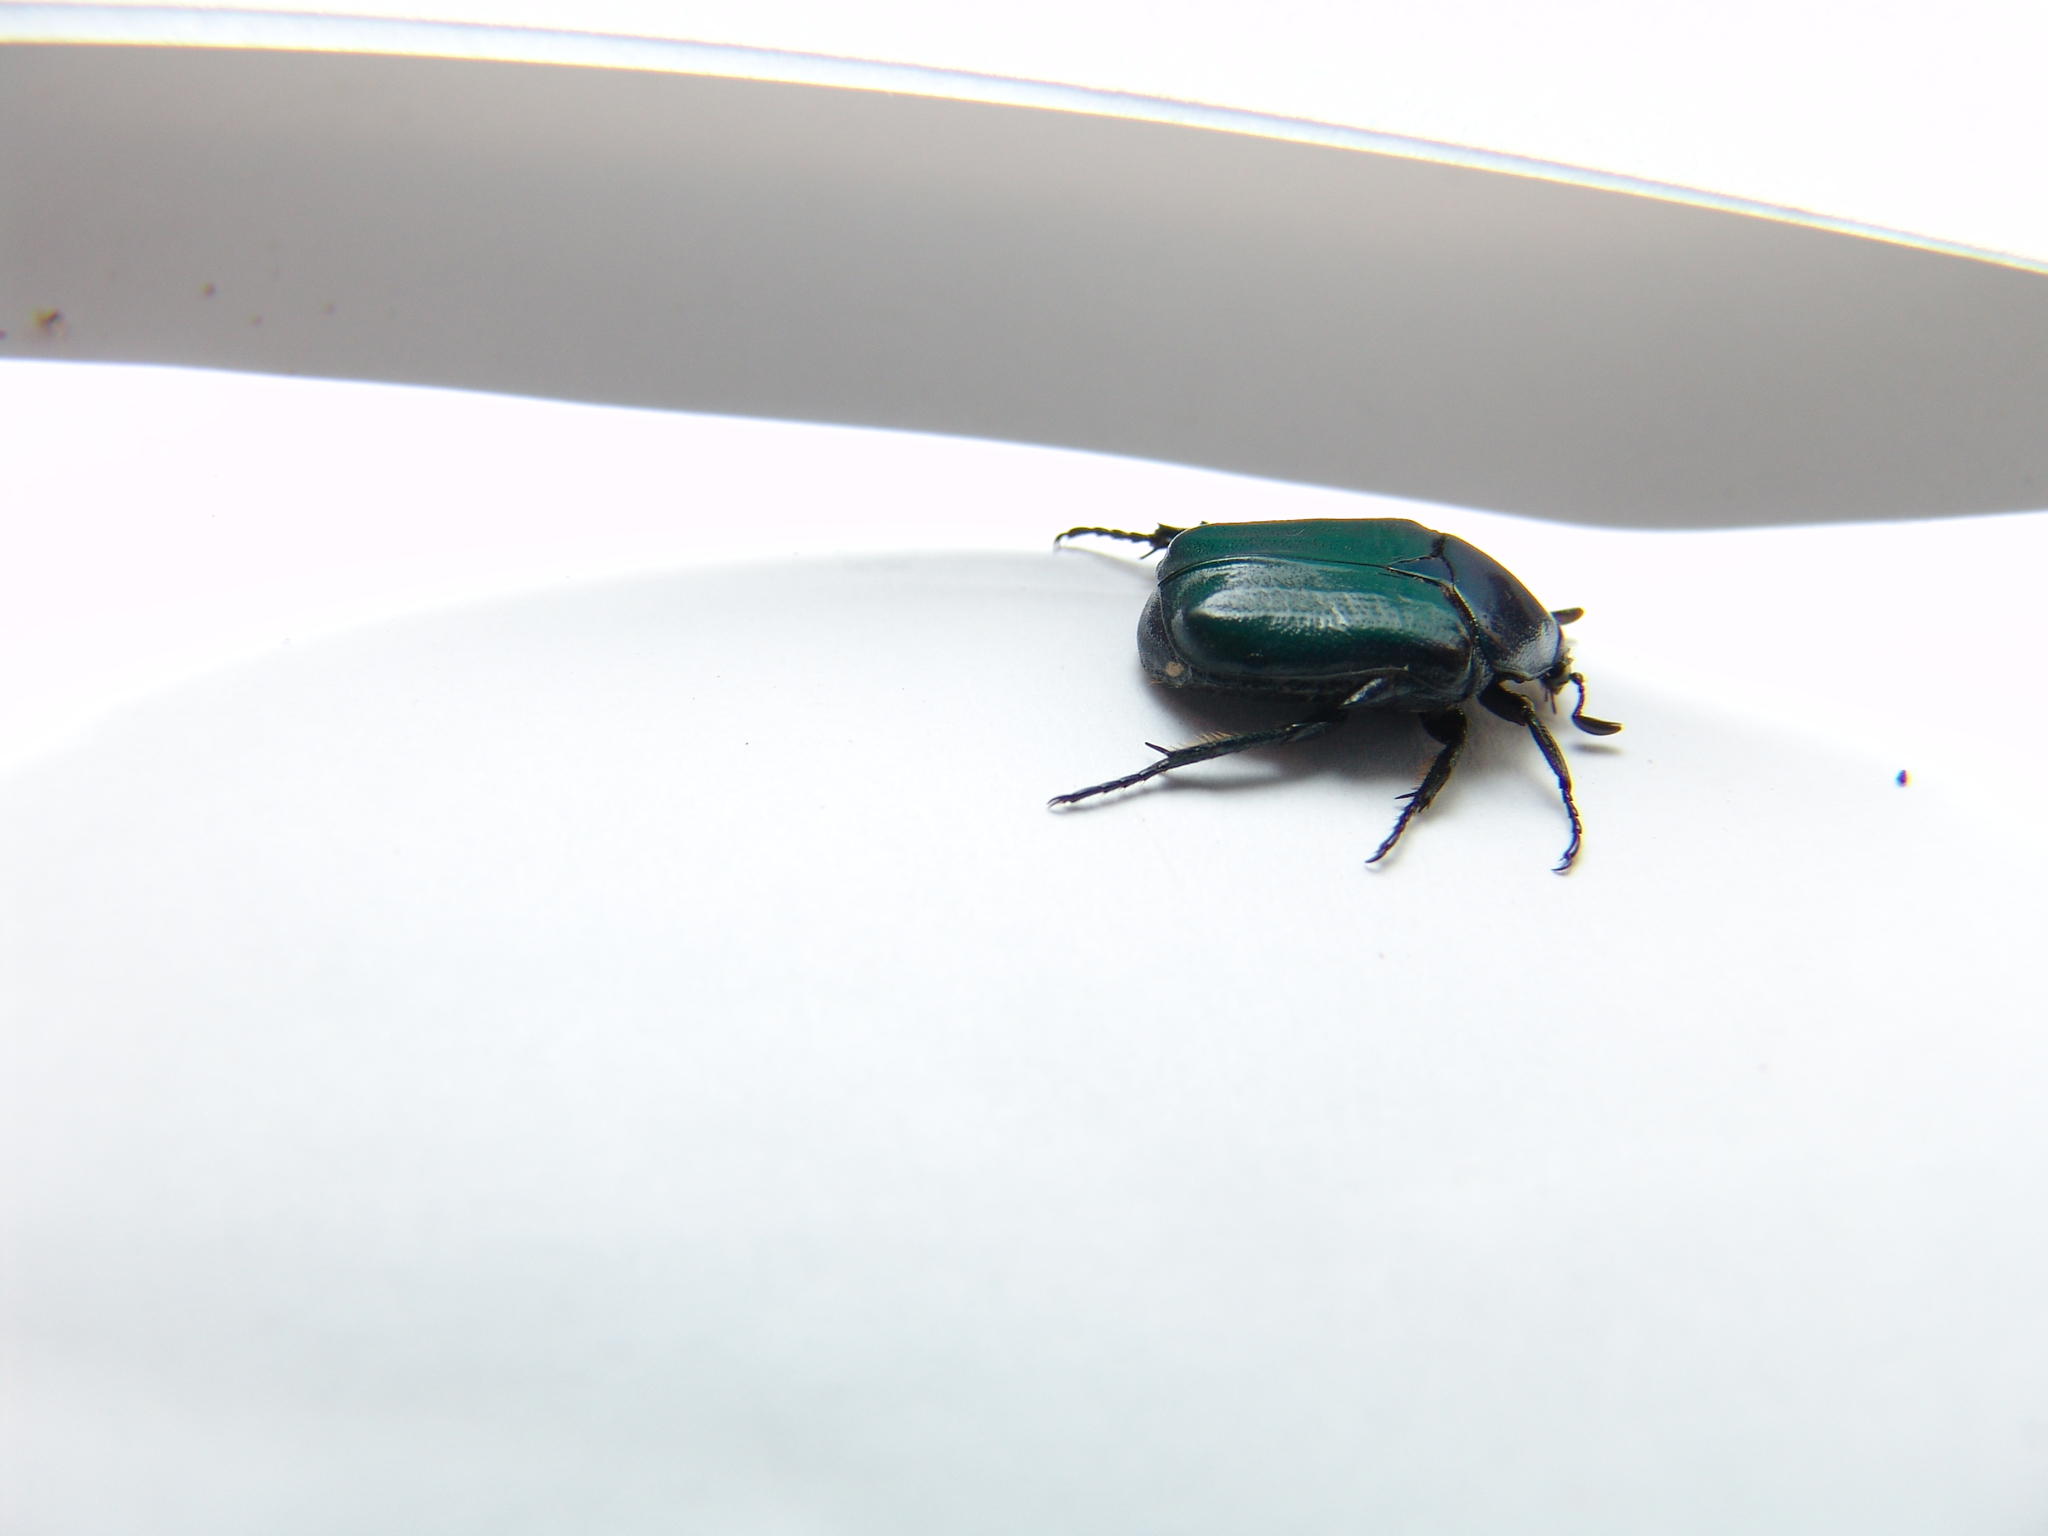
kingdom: Animalia
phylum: Arthropoda
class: Insecta
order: Coleoptera
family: Scarabaeidae
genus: Euphoria
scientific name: Euphoria monticola
